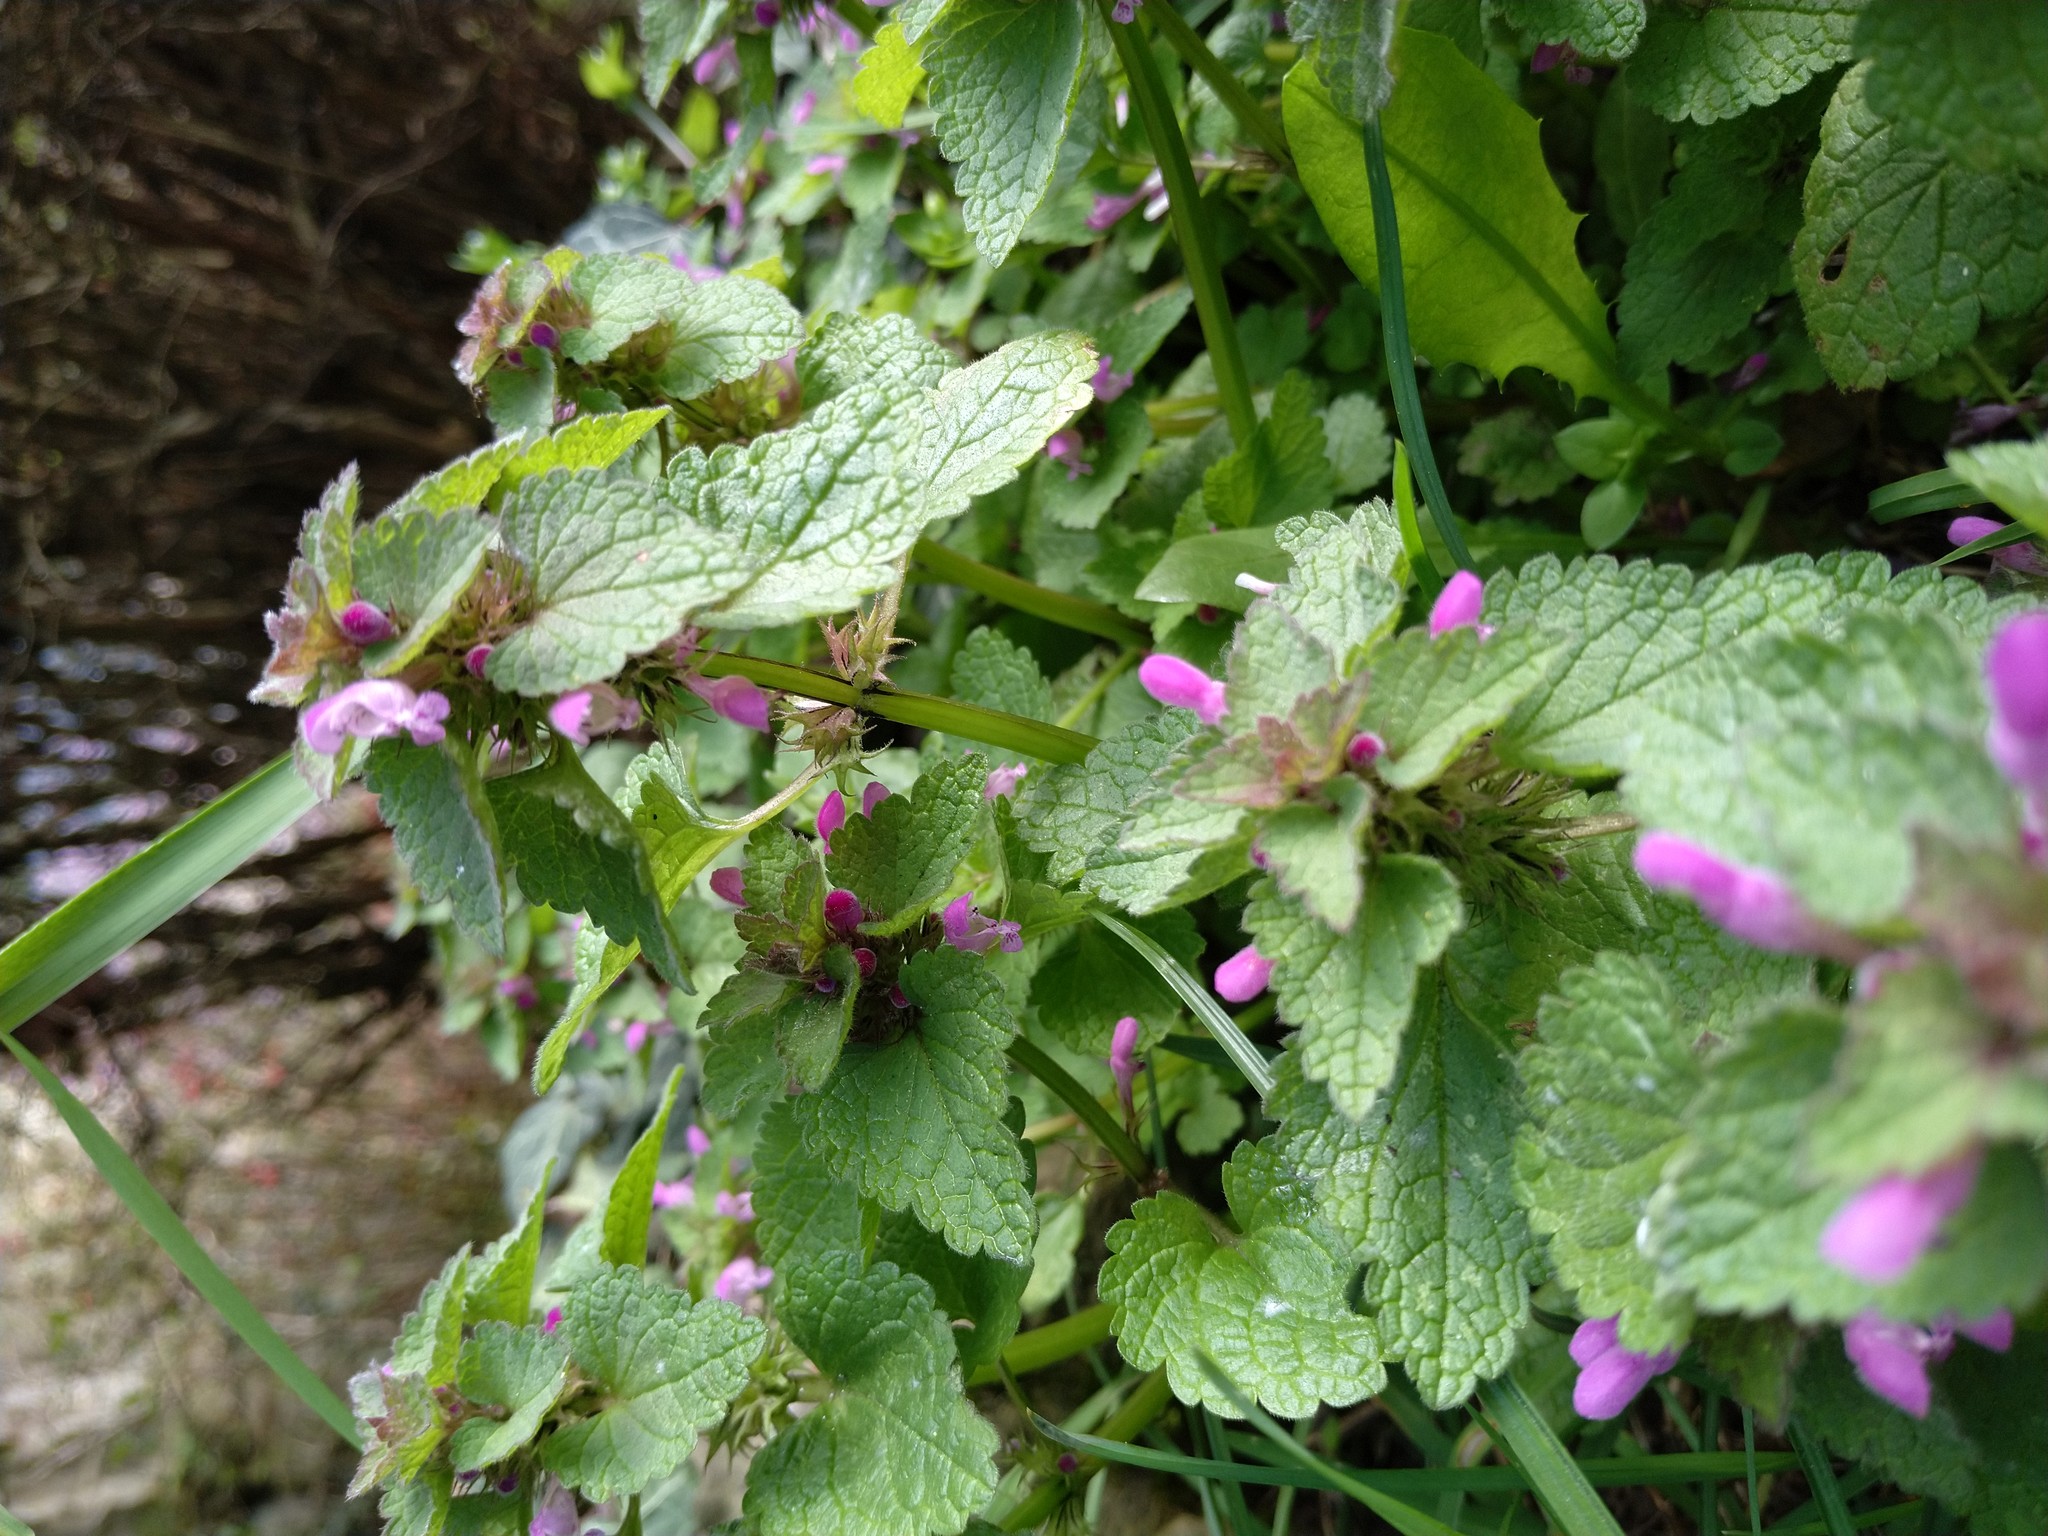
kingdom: Plantae
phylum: Tracheophyta
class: Magnoliopsida
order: Lamiales
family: Lamiaceae
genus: Lamium
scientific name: Lamium purpureum
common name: Red dead-nettle
